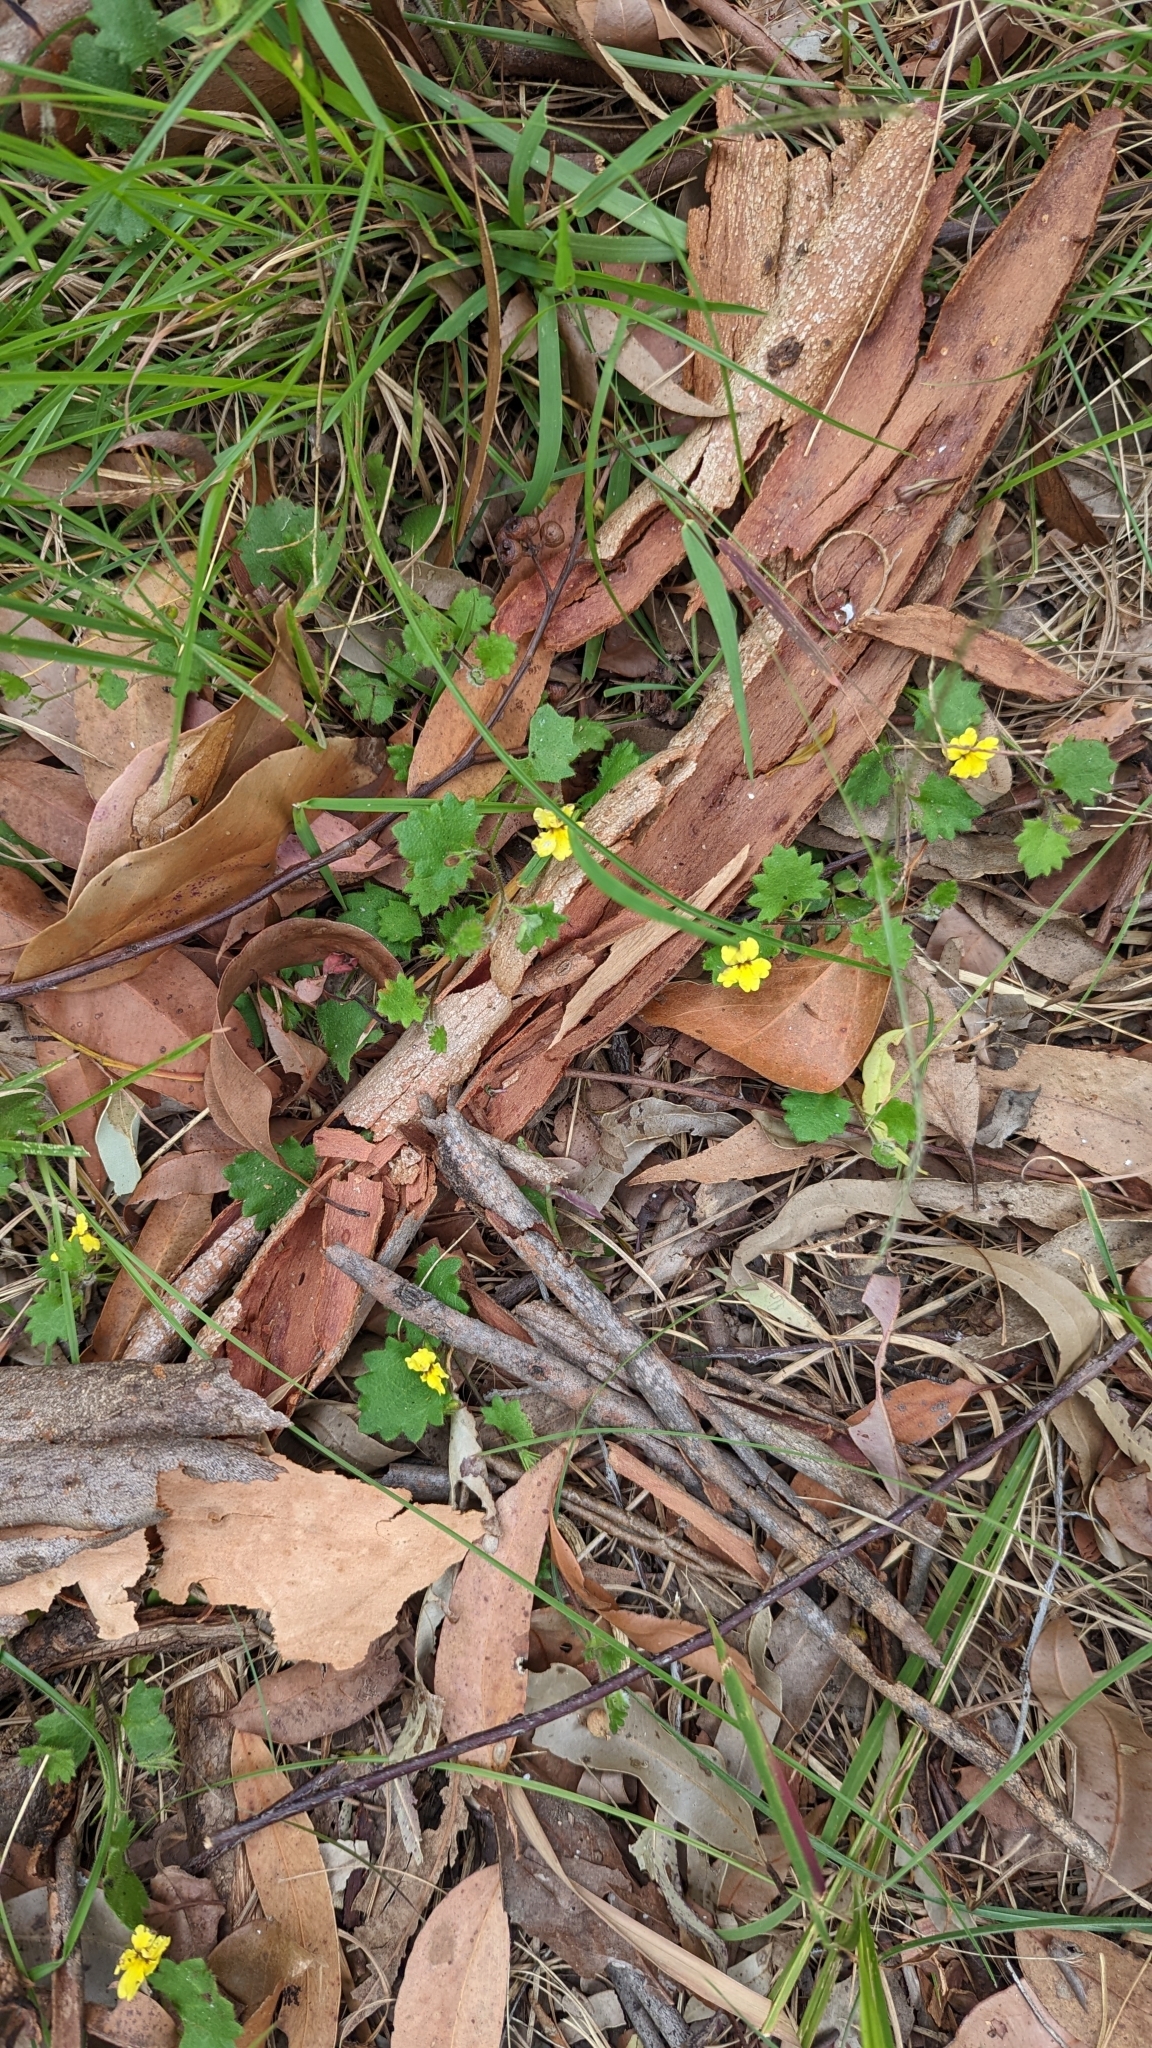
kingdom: Plantae
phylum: Tracheophyta
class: Magnoliopsida
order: Asterales
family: Goodeniaceae
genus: Goodenia
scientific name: Goodenia rotundifolia
